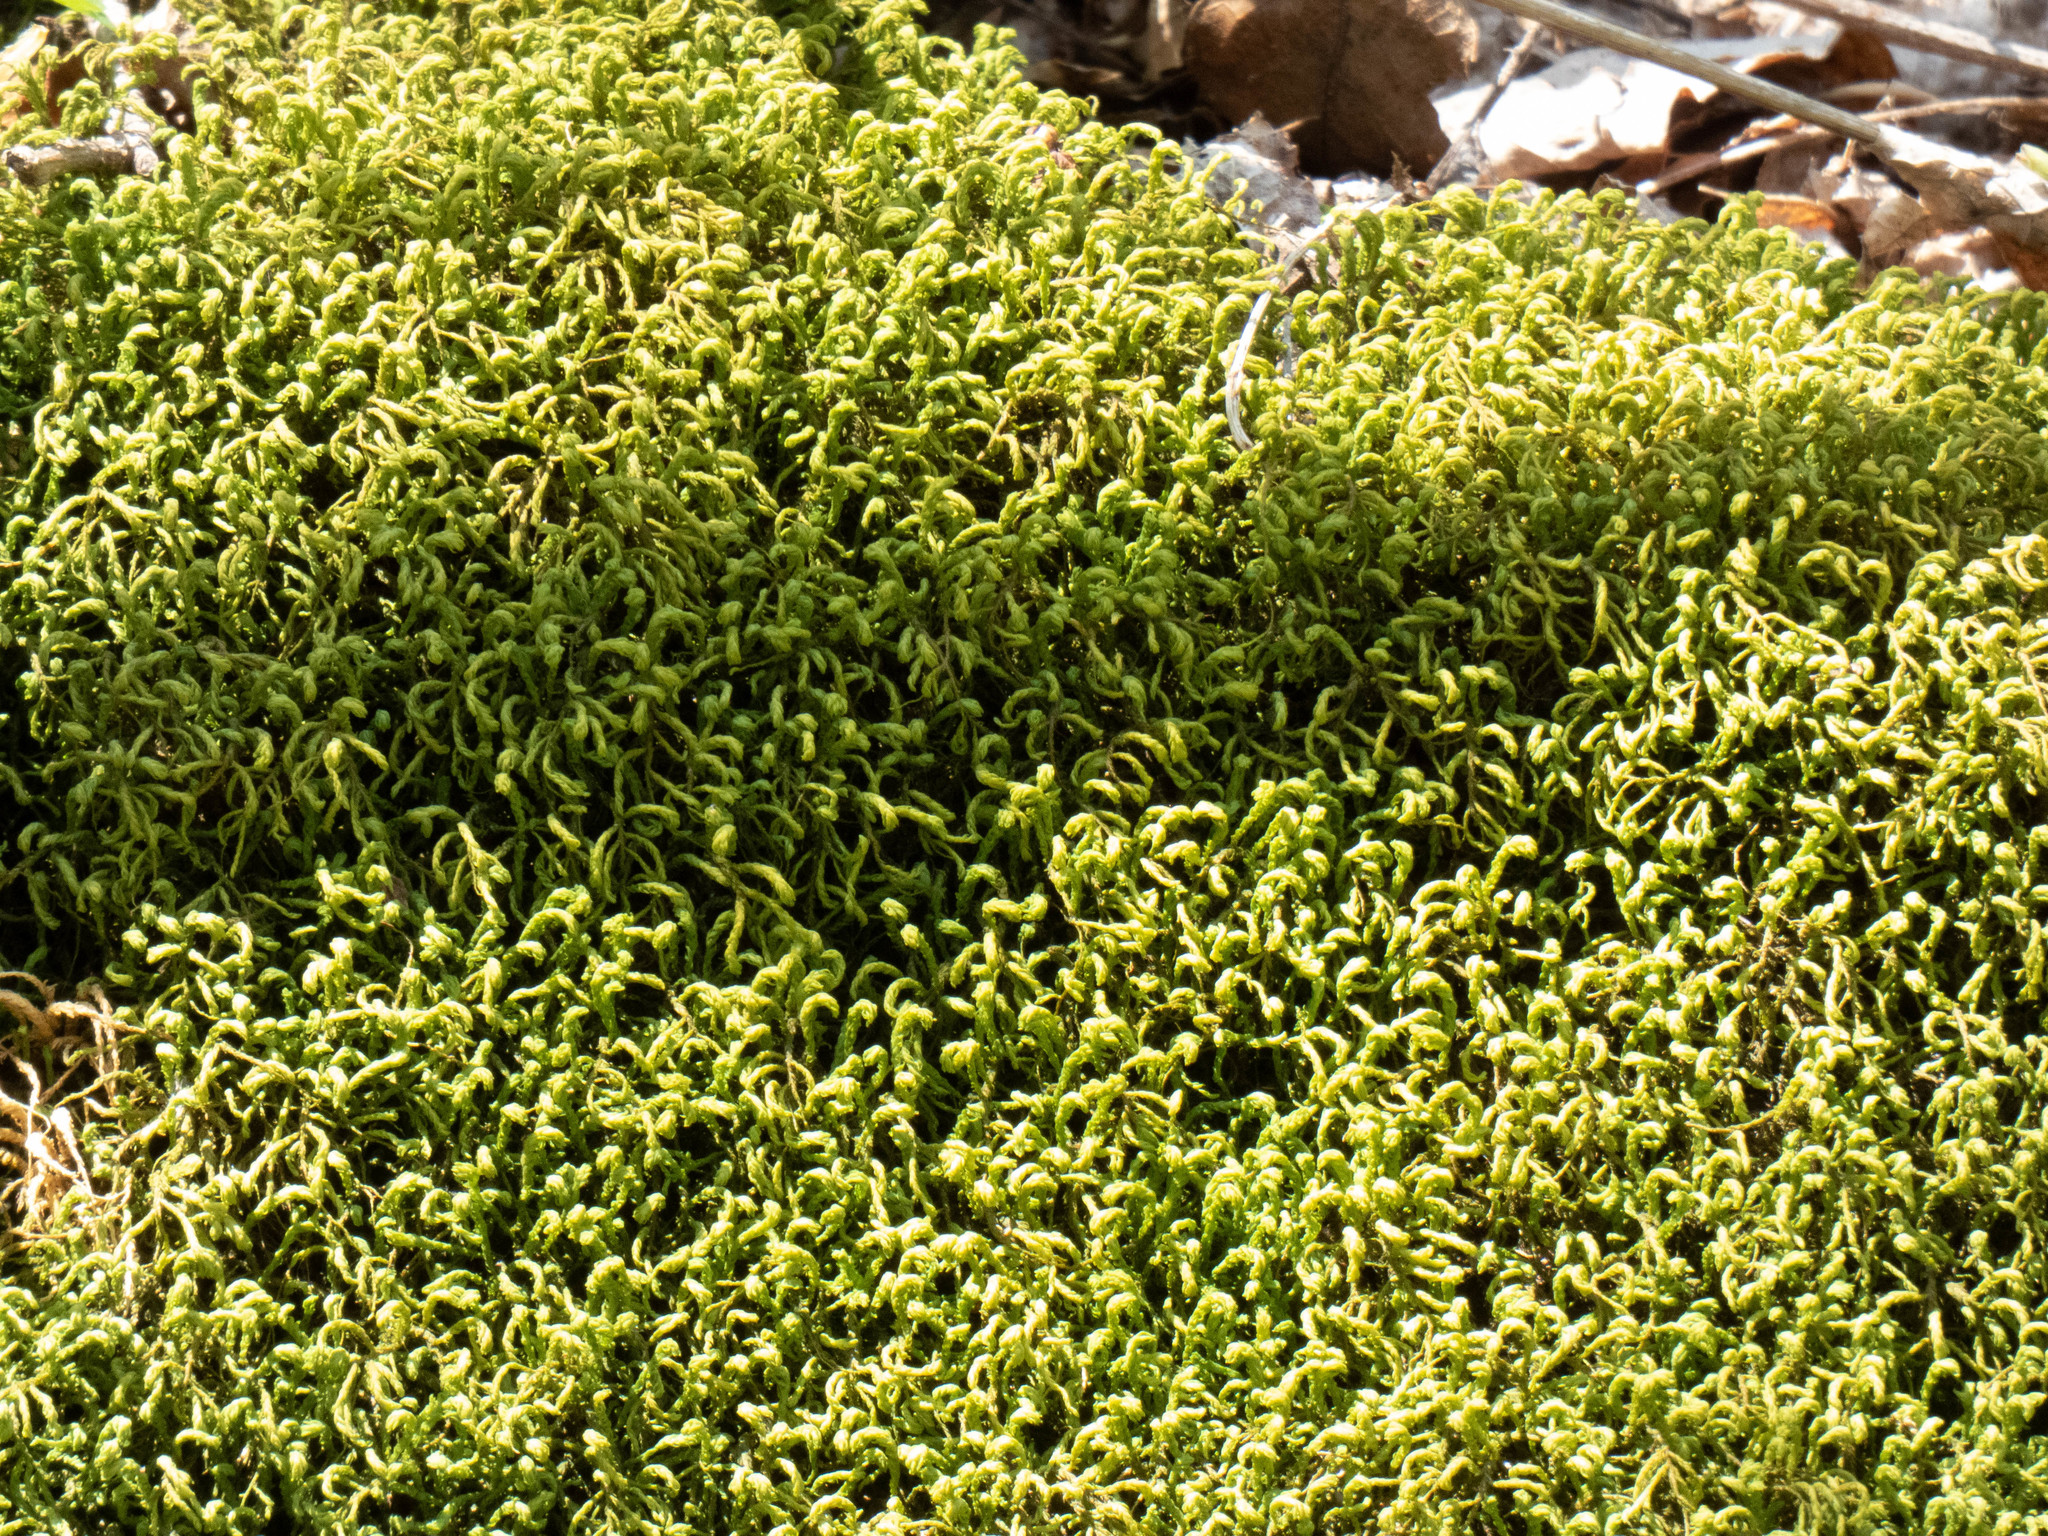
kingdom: Plantae
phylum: Bryophyta
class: Bryopsida
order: Hypnales
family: Neckeraceae
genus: Pseudanomodon
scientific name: Pseudanomodon attenuatus
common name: Tree-skirt moss
